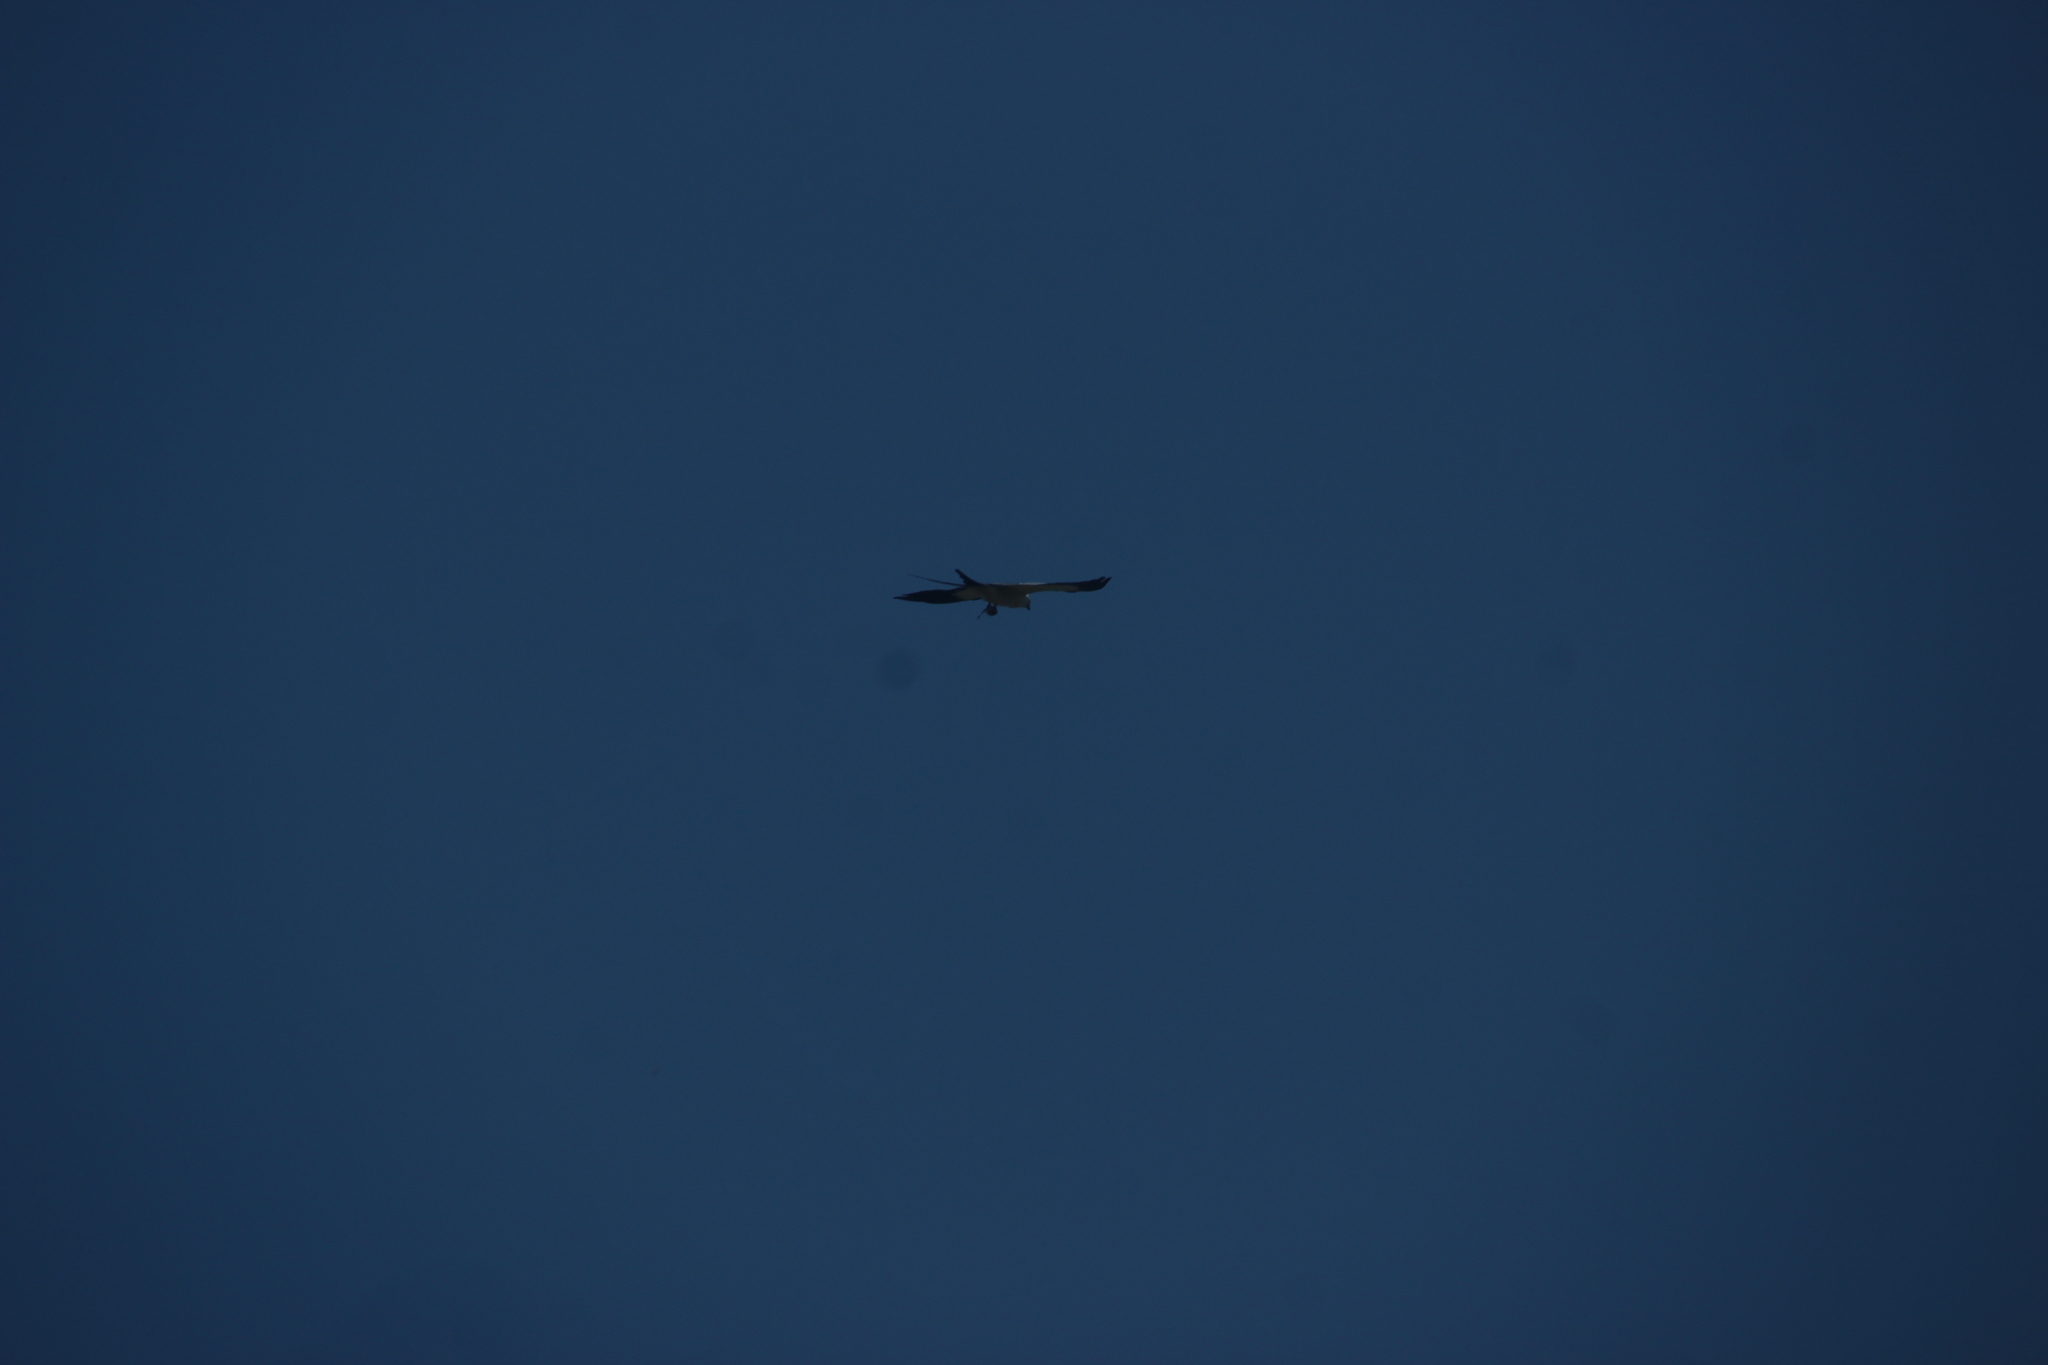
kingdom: Animalia
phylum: Chordata
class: Aves
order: Accipitriformes
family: Accipitridae
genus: Elanoides
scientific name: Elanoides forficatus
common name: Swallow-tailed kite
